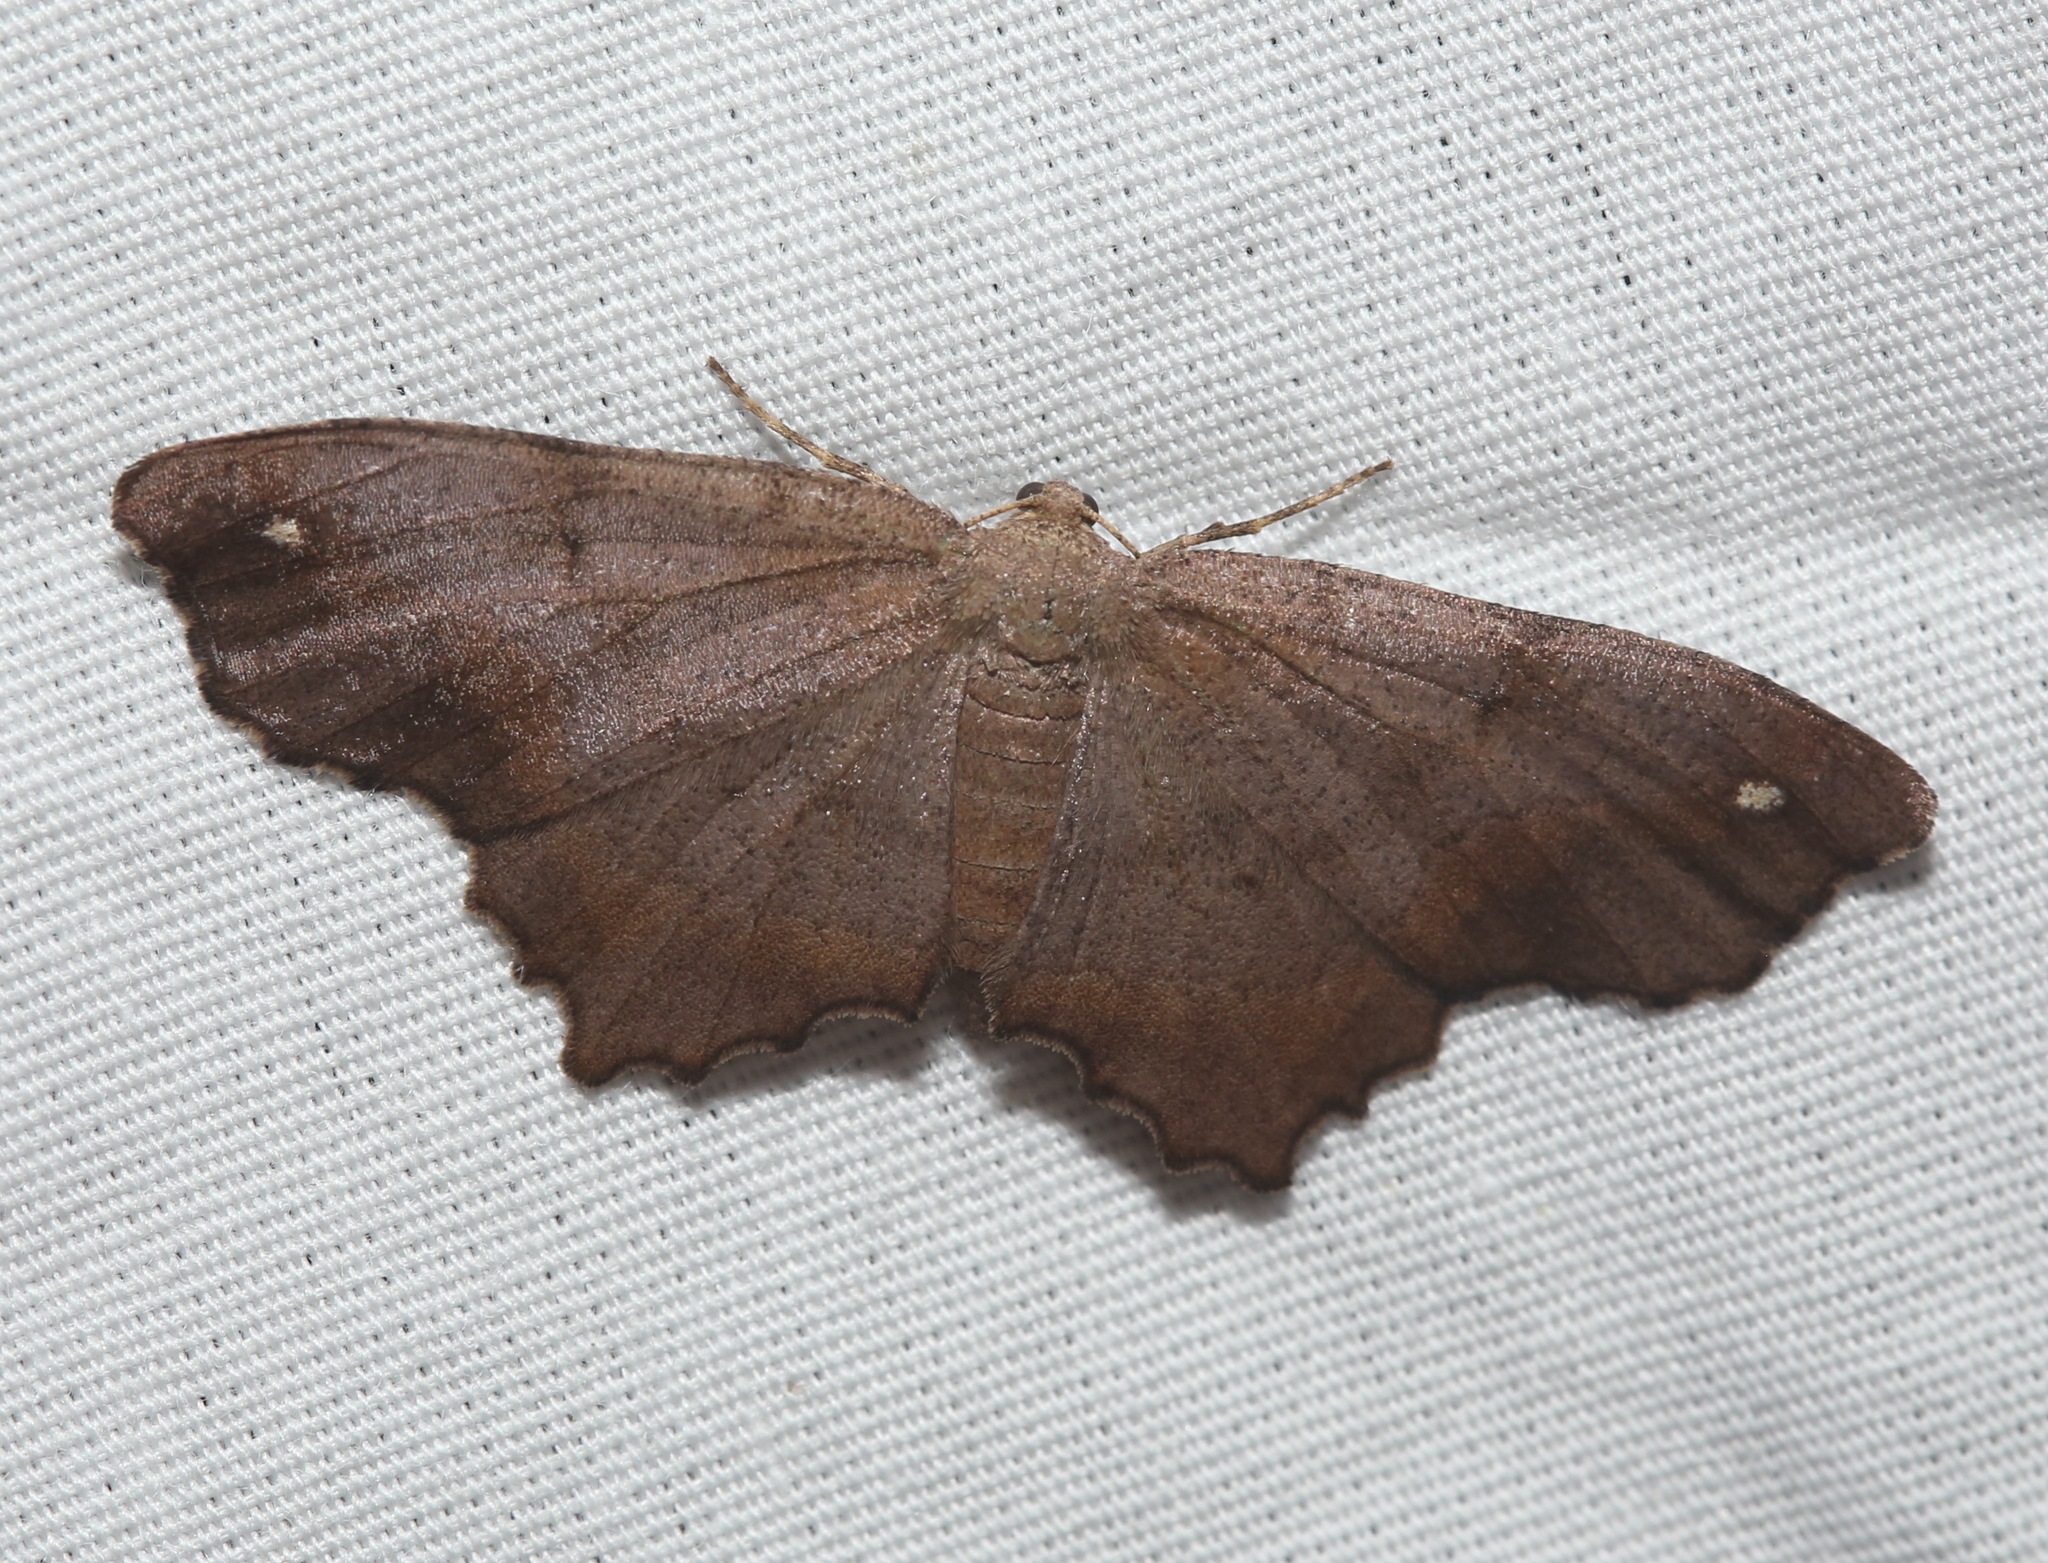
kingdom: Animalia
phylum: Arthropoda
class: Insecta
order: Lepidoptera
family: Geometridae
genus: Hypagyrtis
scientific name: Hypagyrtis esther
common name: Esther moth
